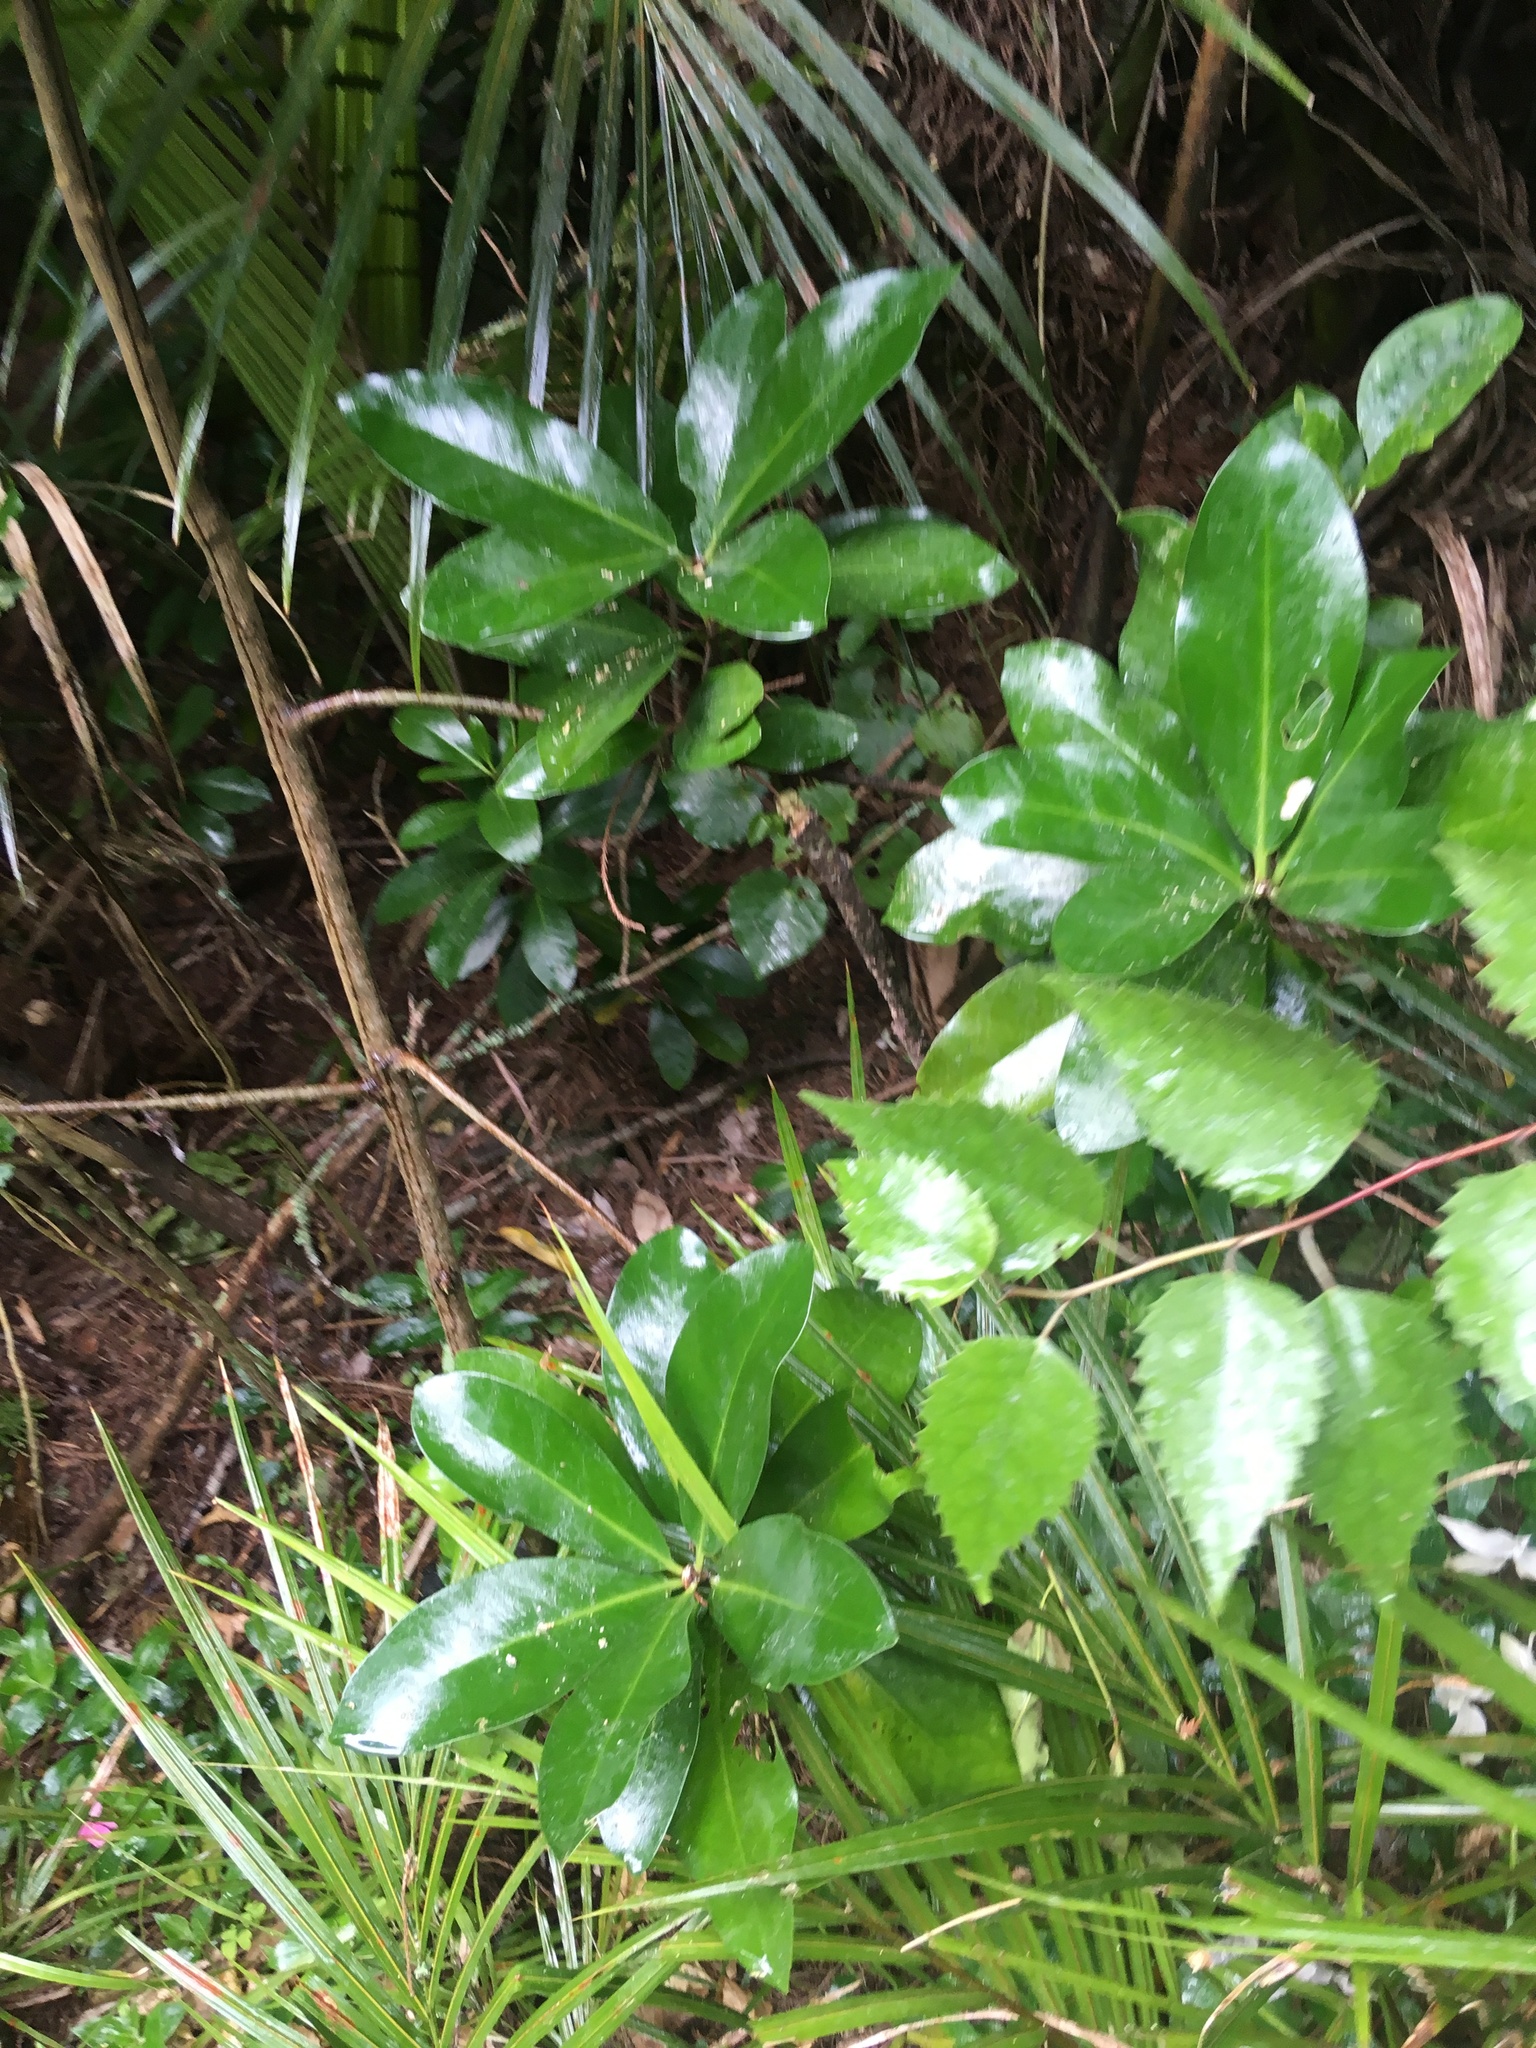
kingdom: Plantae
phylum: Tracheophyta
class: Magnoliopsida
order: Cucurbitales
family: Corynocarpaceae
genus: Corynocarpus
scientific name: Corynocarpus laevigatus
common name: New zealand laurel
